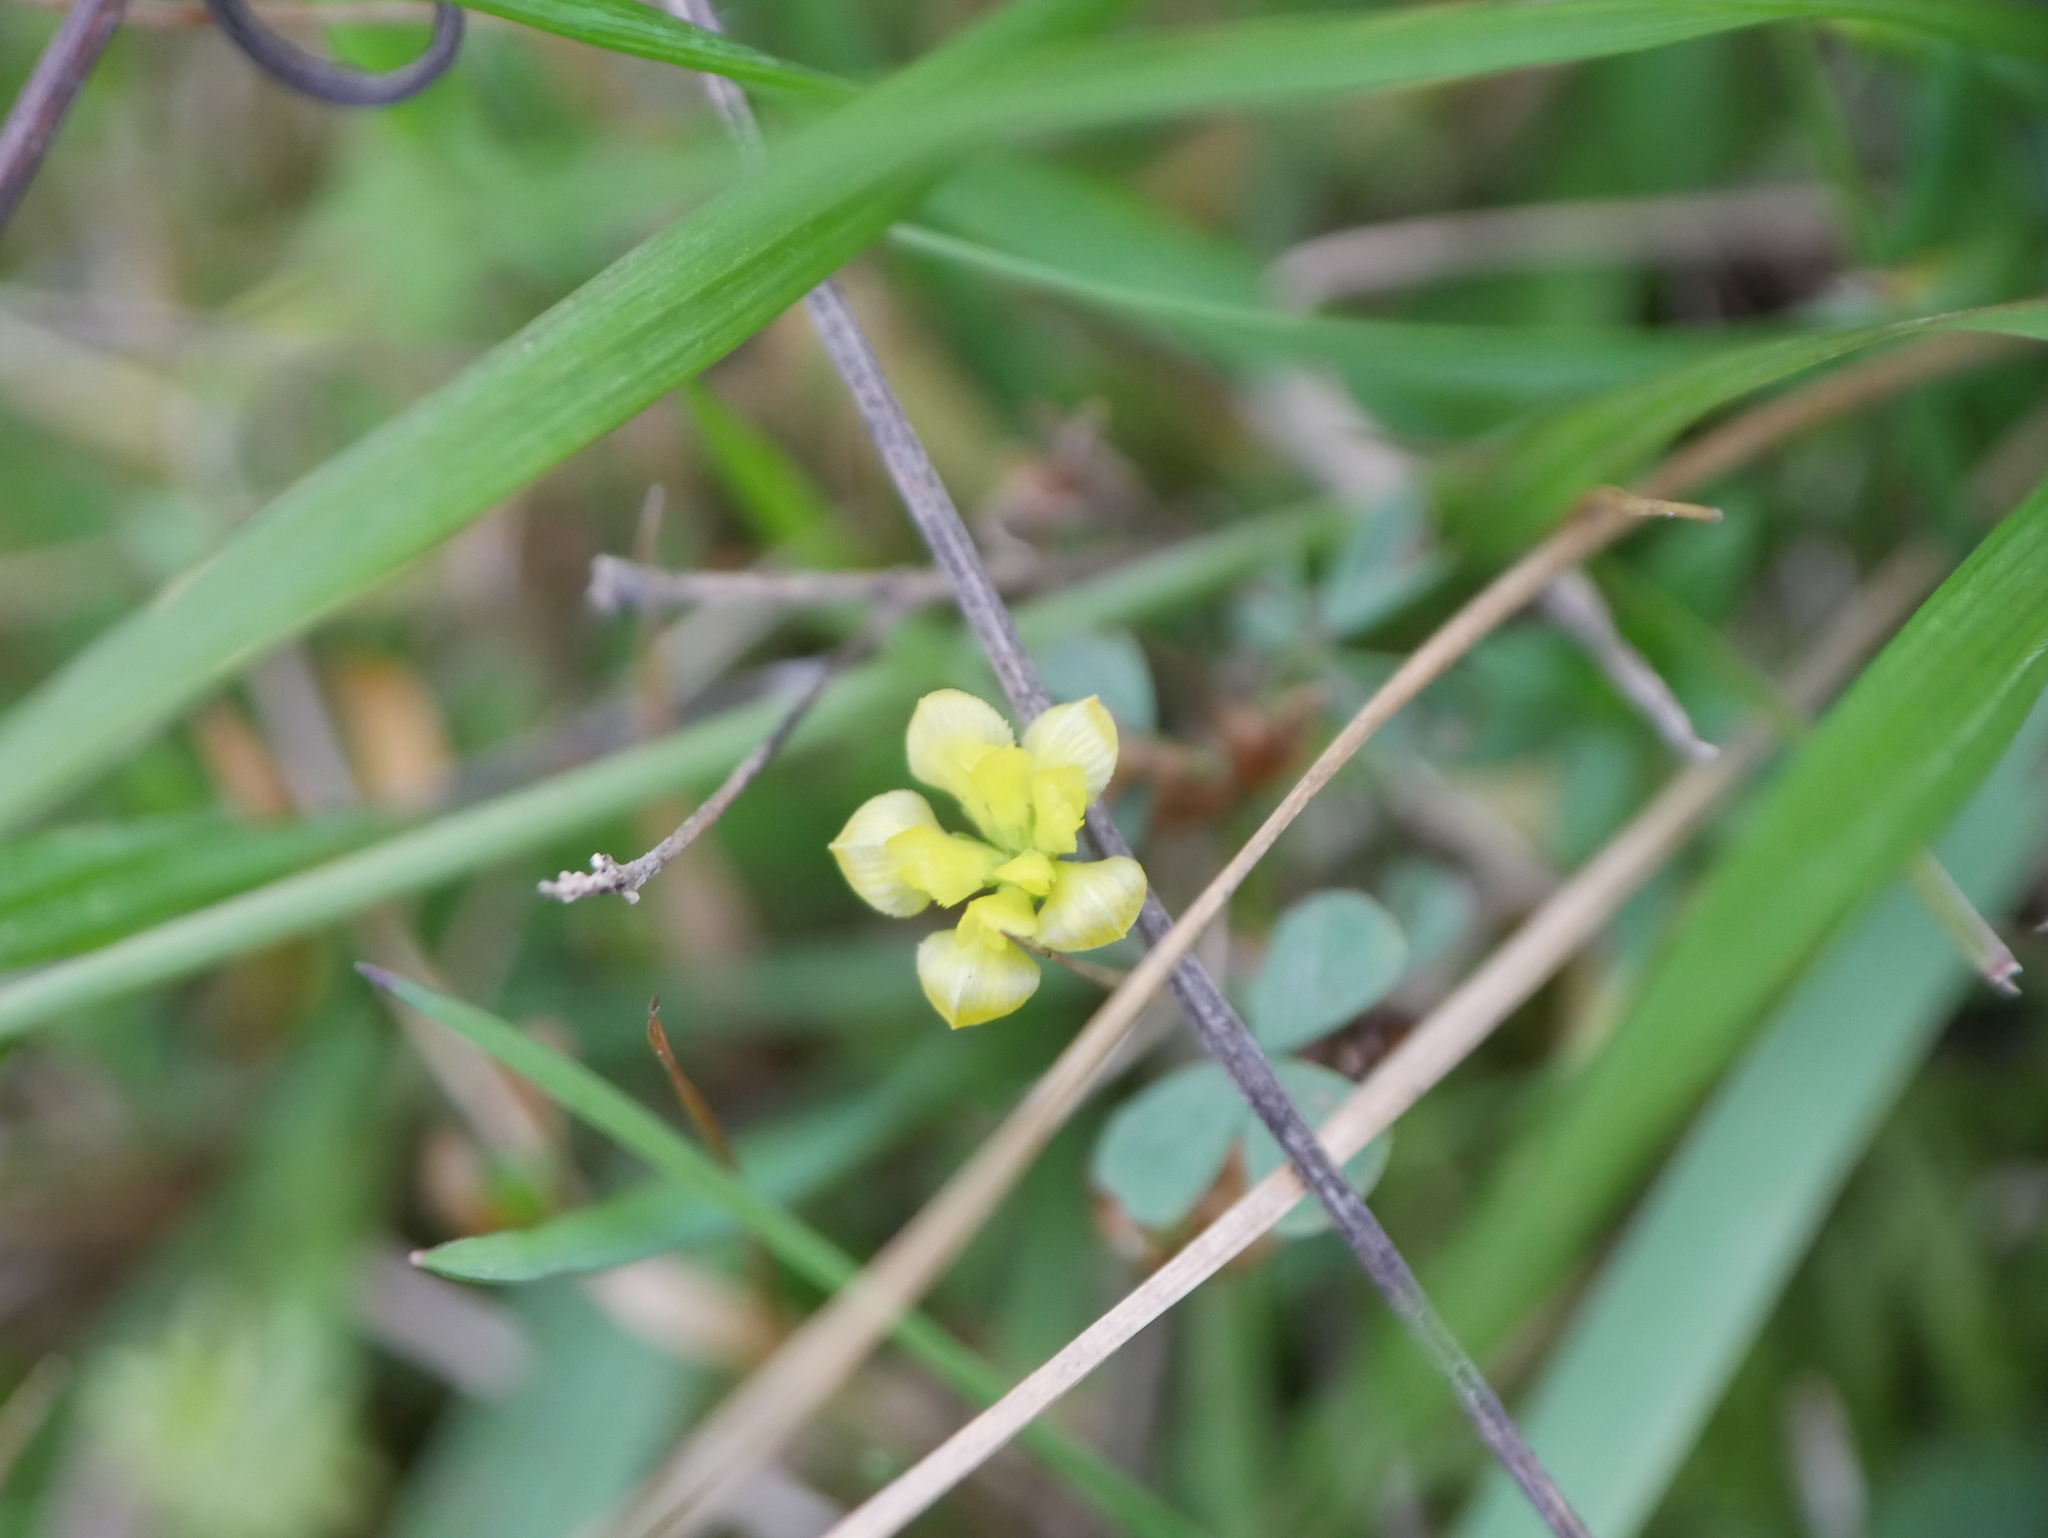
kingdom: Plantae
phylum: Tracheophyta
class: Magnoliopsida
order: Fabales
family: Fabaceae
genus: Trifolium
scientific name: Trifolium campestre
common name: Field clover
